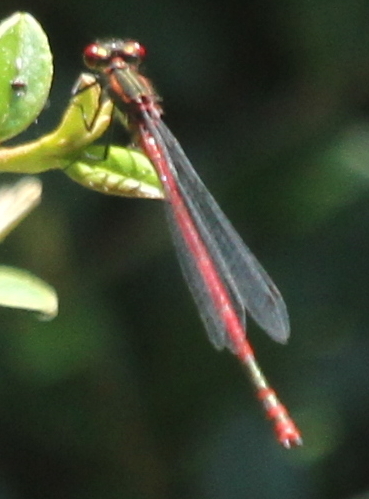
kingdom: Animalia
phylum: Arthropoda
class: Insecta
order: Odonata
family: Coenagrionidae
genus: Pyrrhosoma
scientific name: Pyrrhosoma nymphula
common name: Large red damsel
